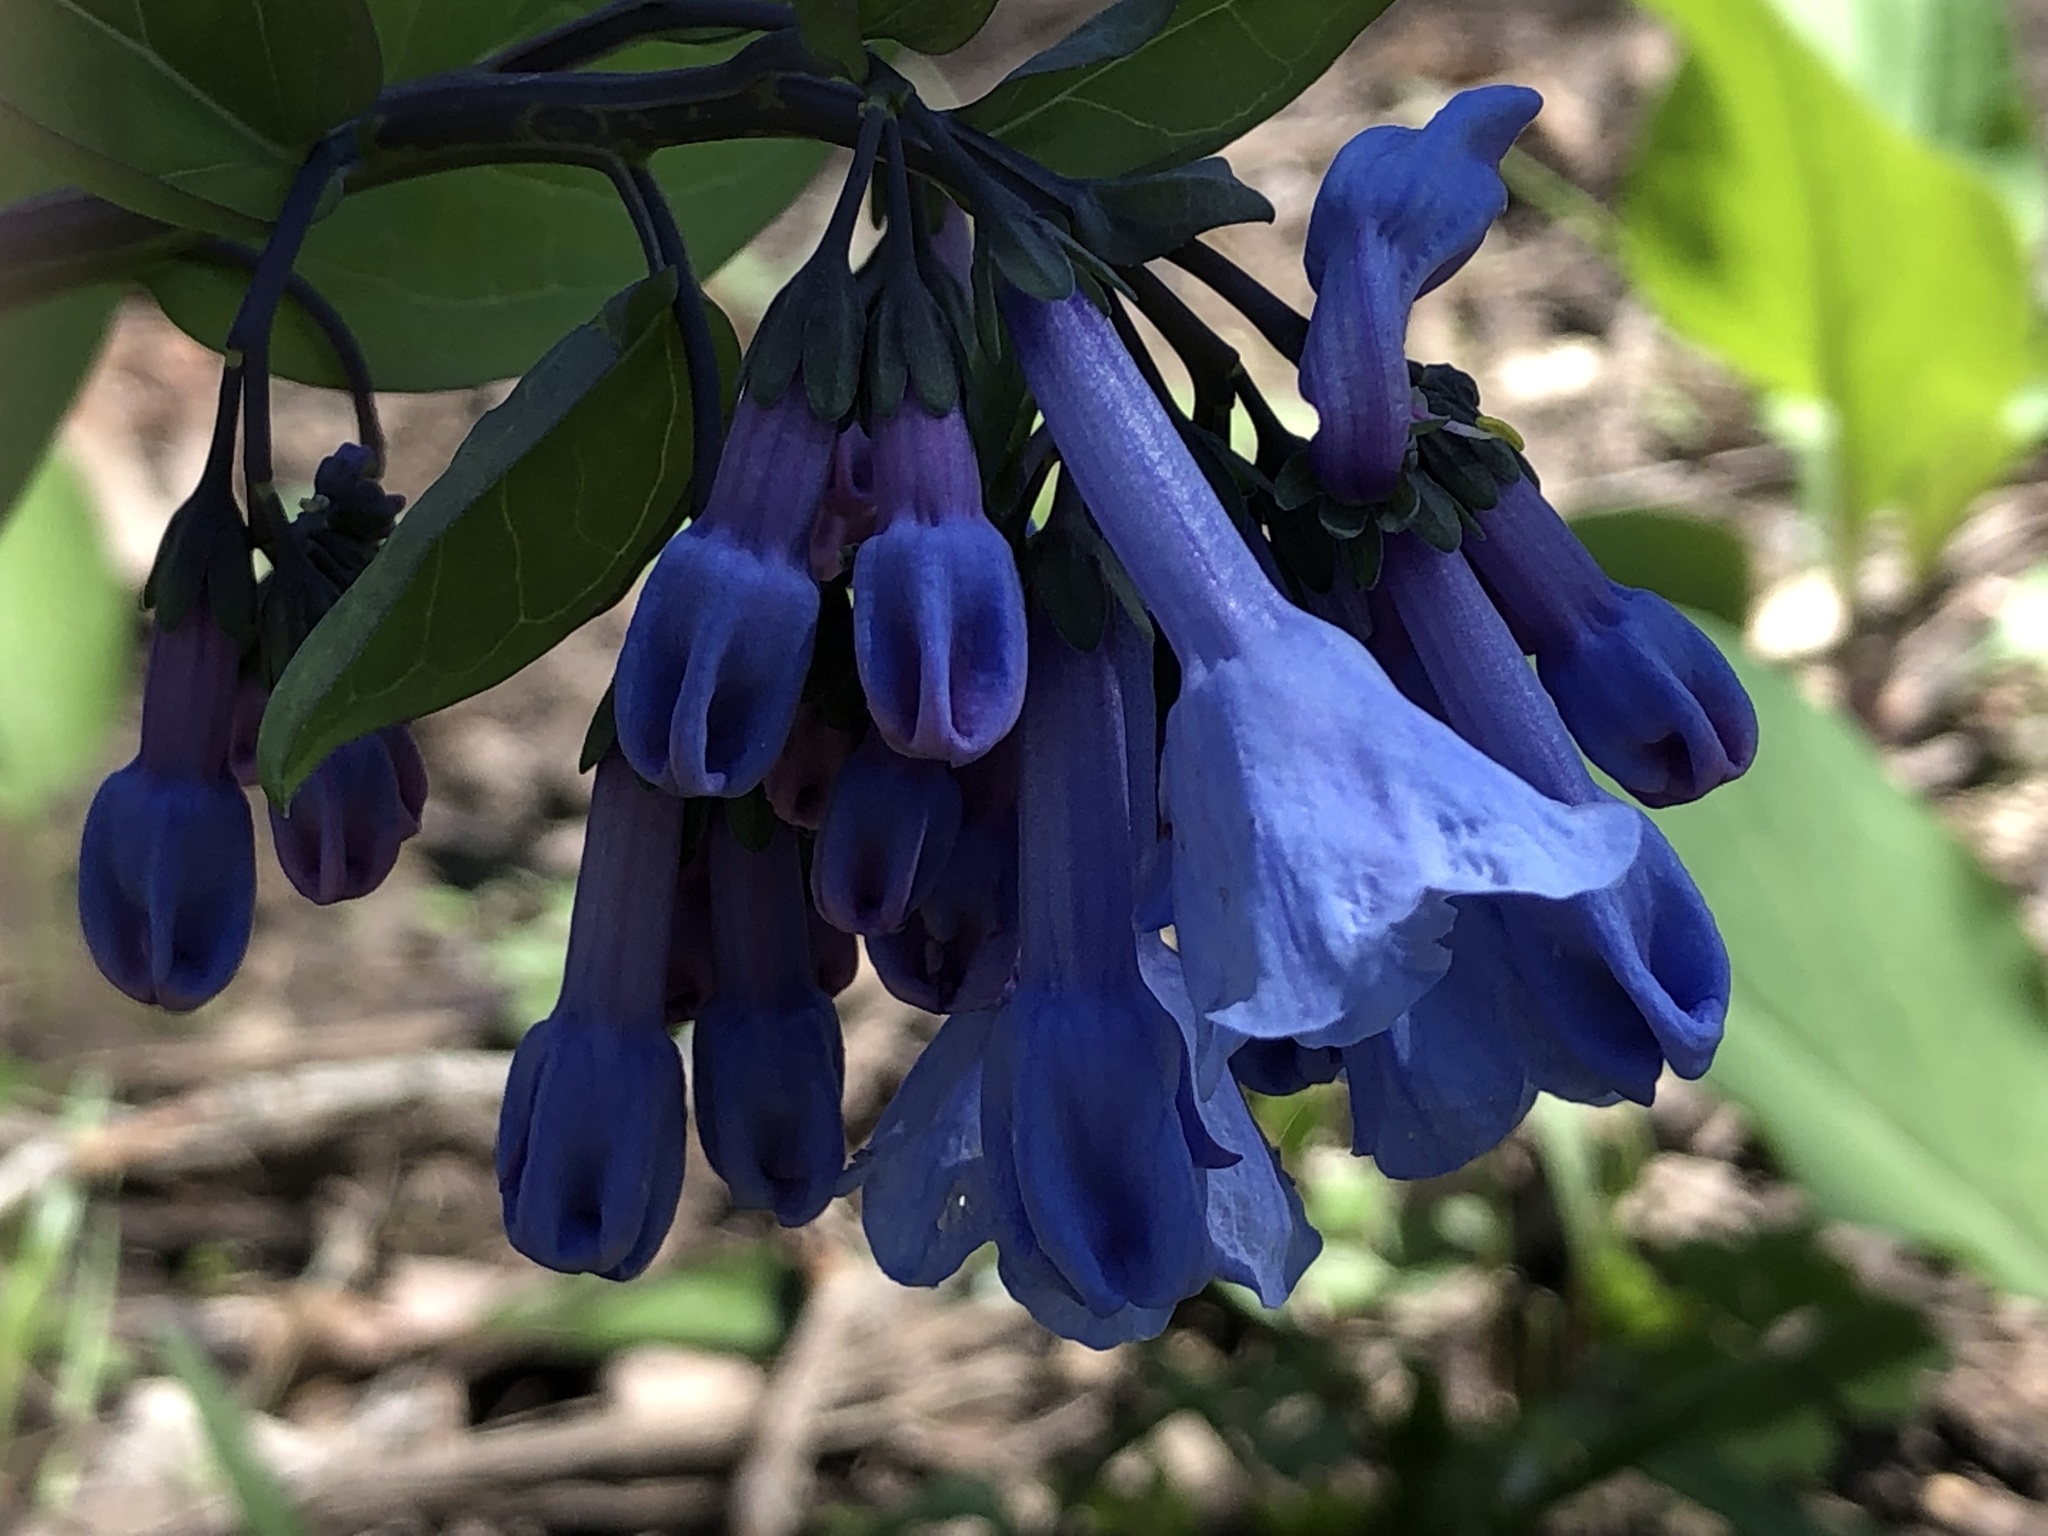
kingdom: Plantae
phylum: Tracheophyta
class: Magnoliopsida
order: Boraginales
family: Boraginaceae
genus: Mertensia
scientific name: Mertensia virginica
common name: Virginia bluebells
